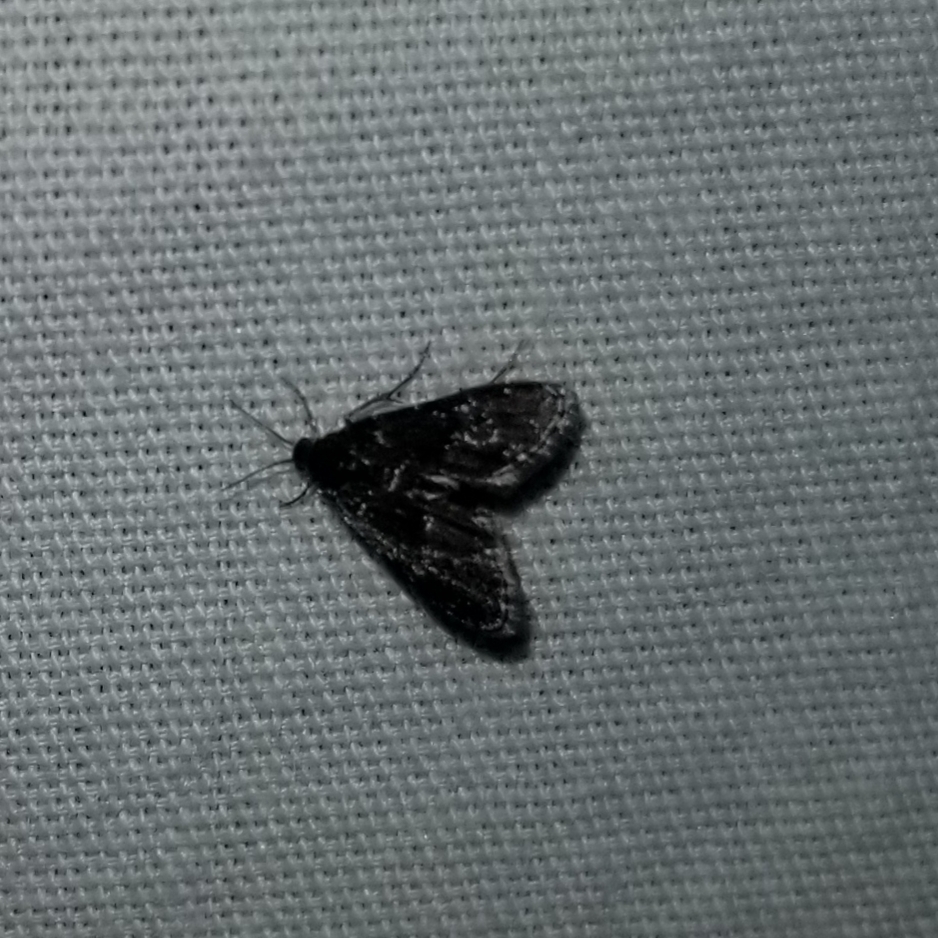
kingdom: Animalia
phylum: Arthropoda
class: Insecta
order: Lepidoptera
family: Crambidae
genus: Elophila
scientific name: Elophila tinealis
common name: Black duckweed moth
